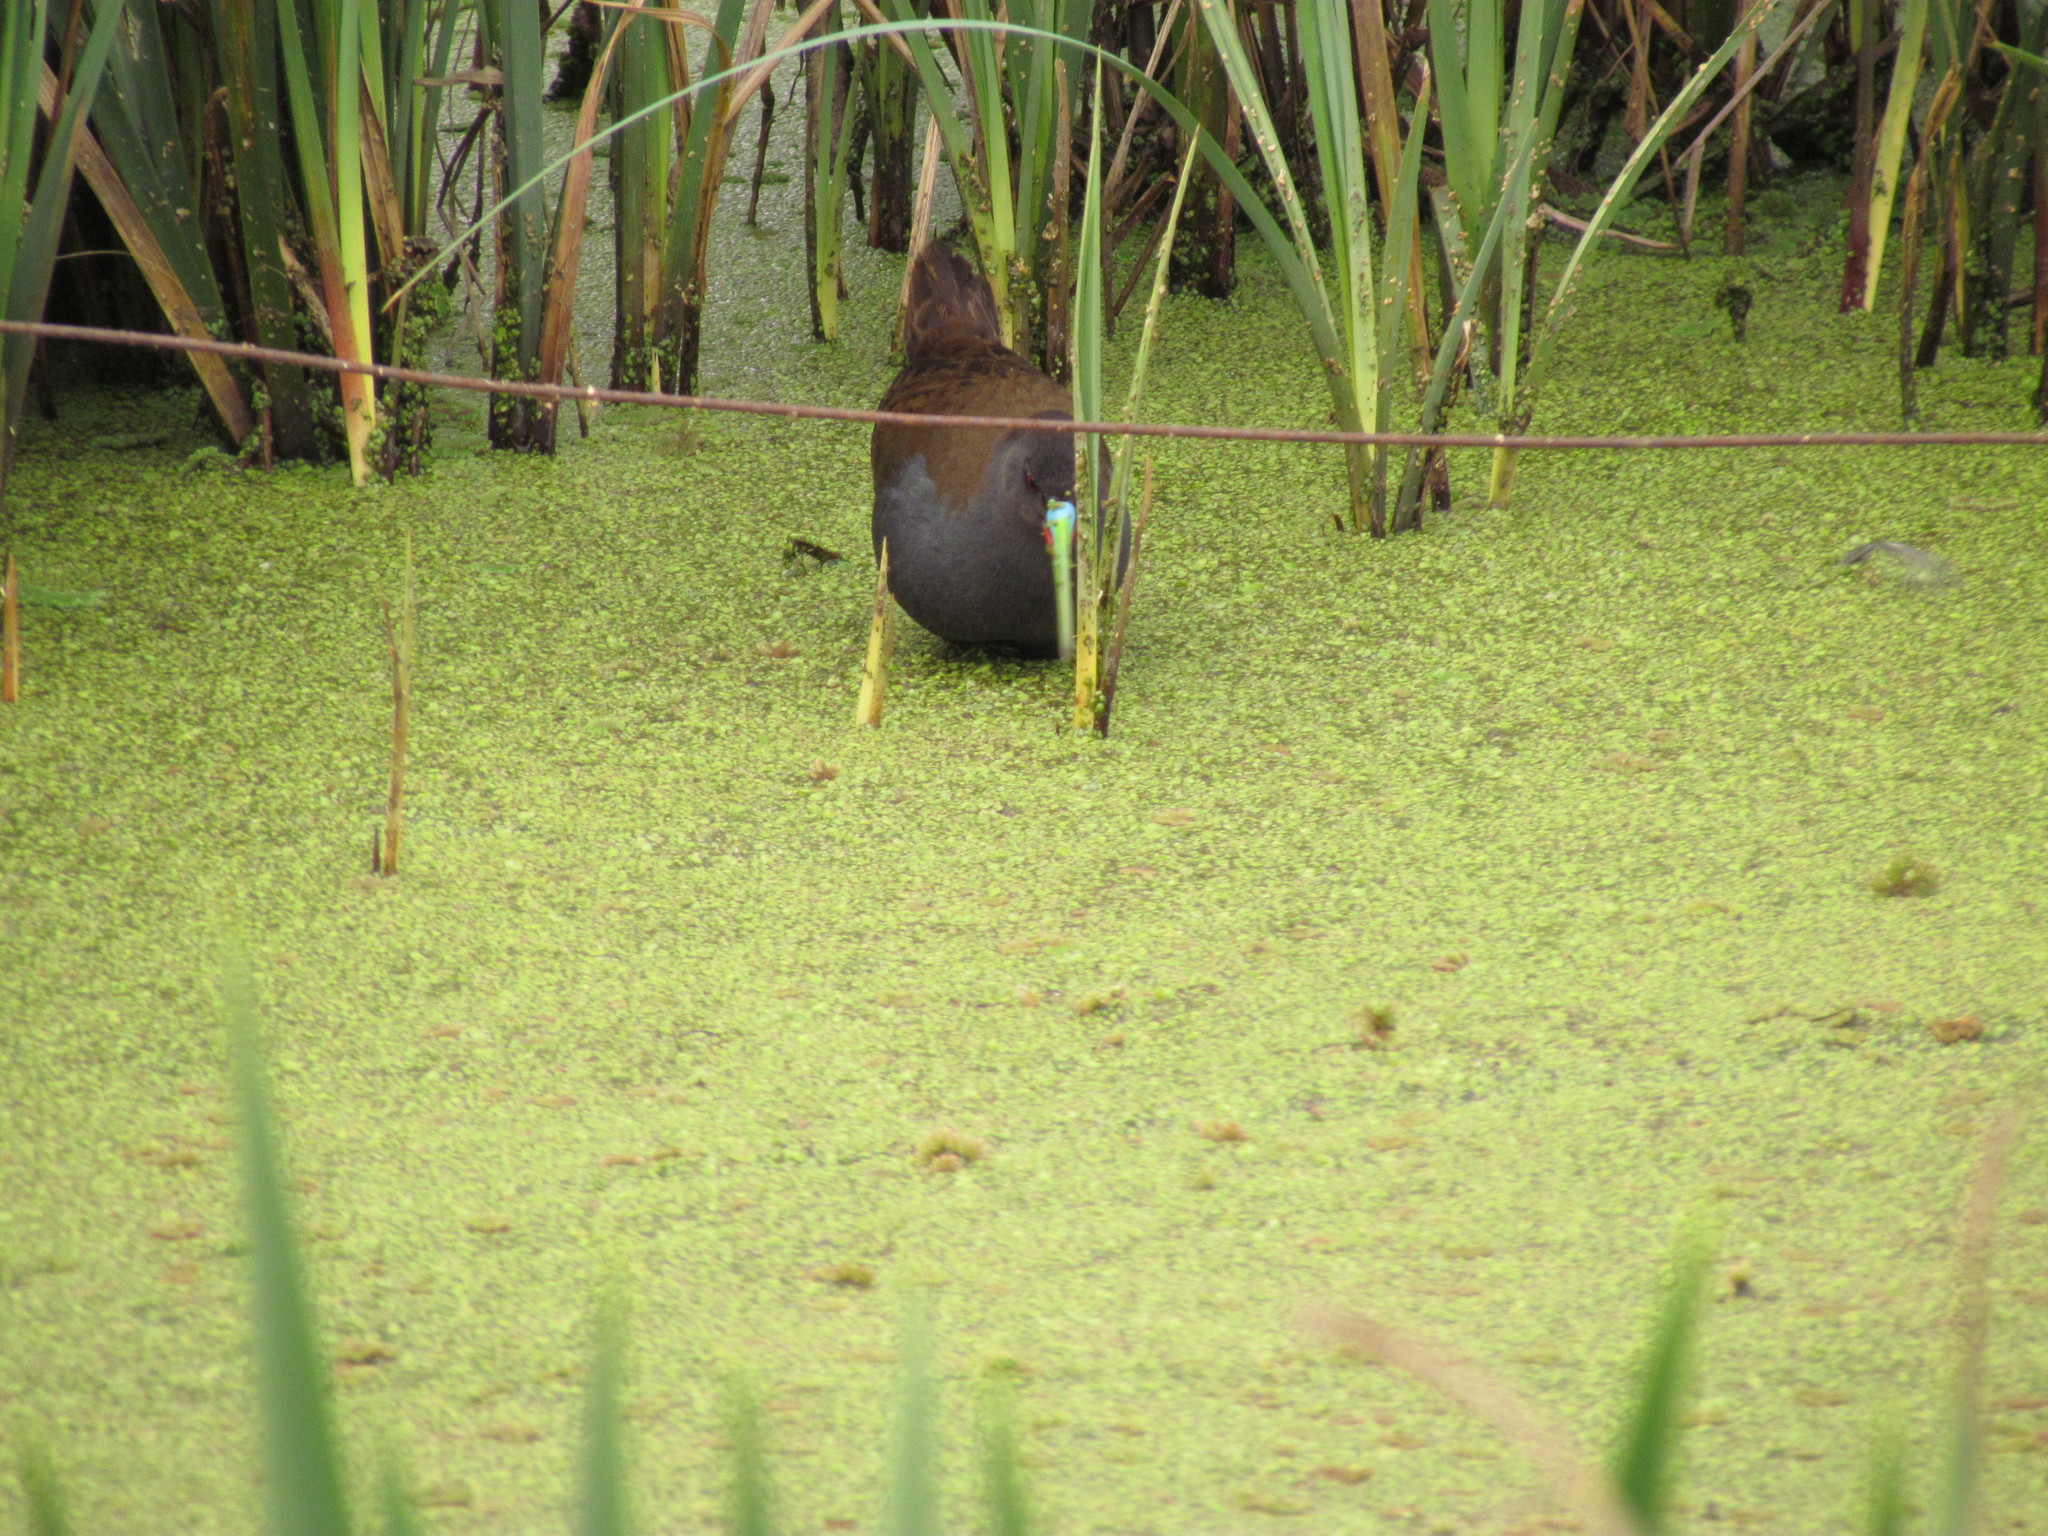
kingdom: Animalia
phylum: Chordata
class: Aves
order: Gruiformes
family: Rallidae
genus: Pardirallus
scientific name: Pardirallus sanguinolentus
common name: Plumbeous rail
